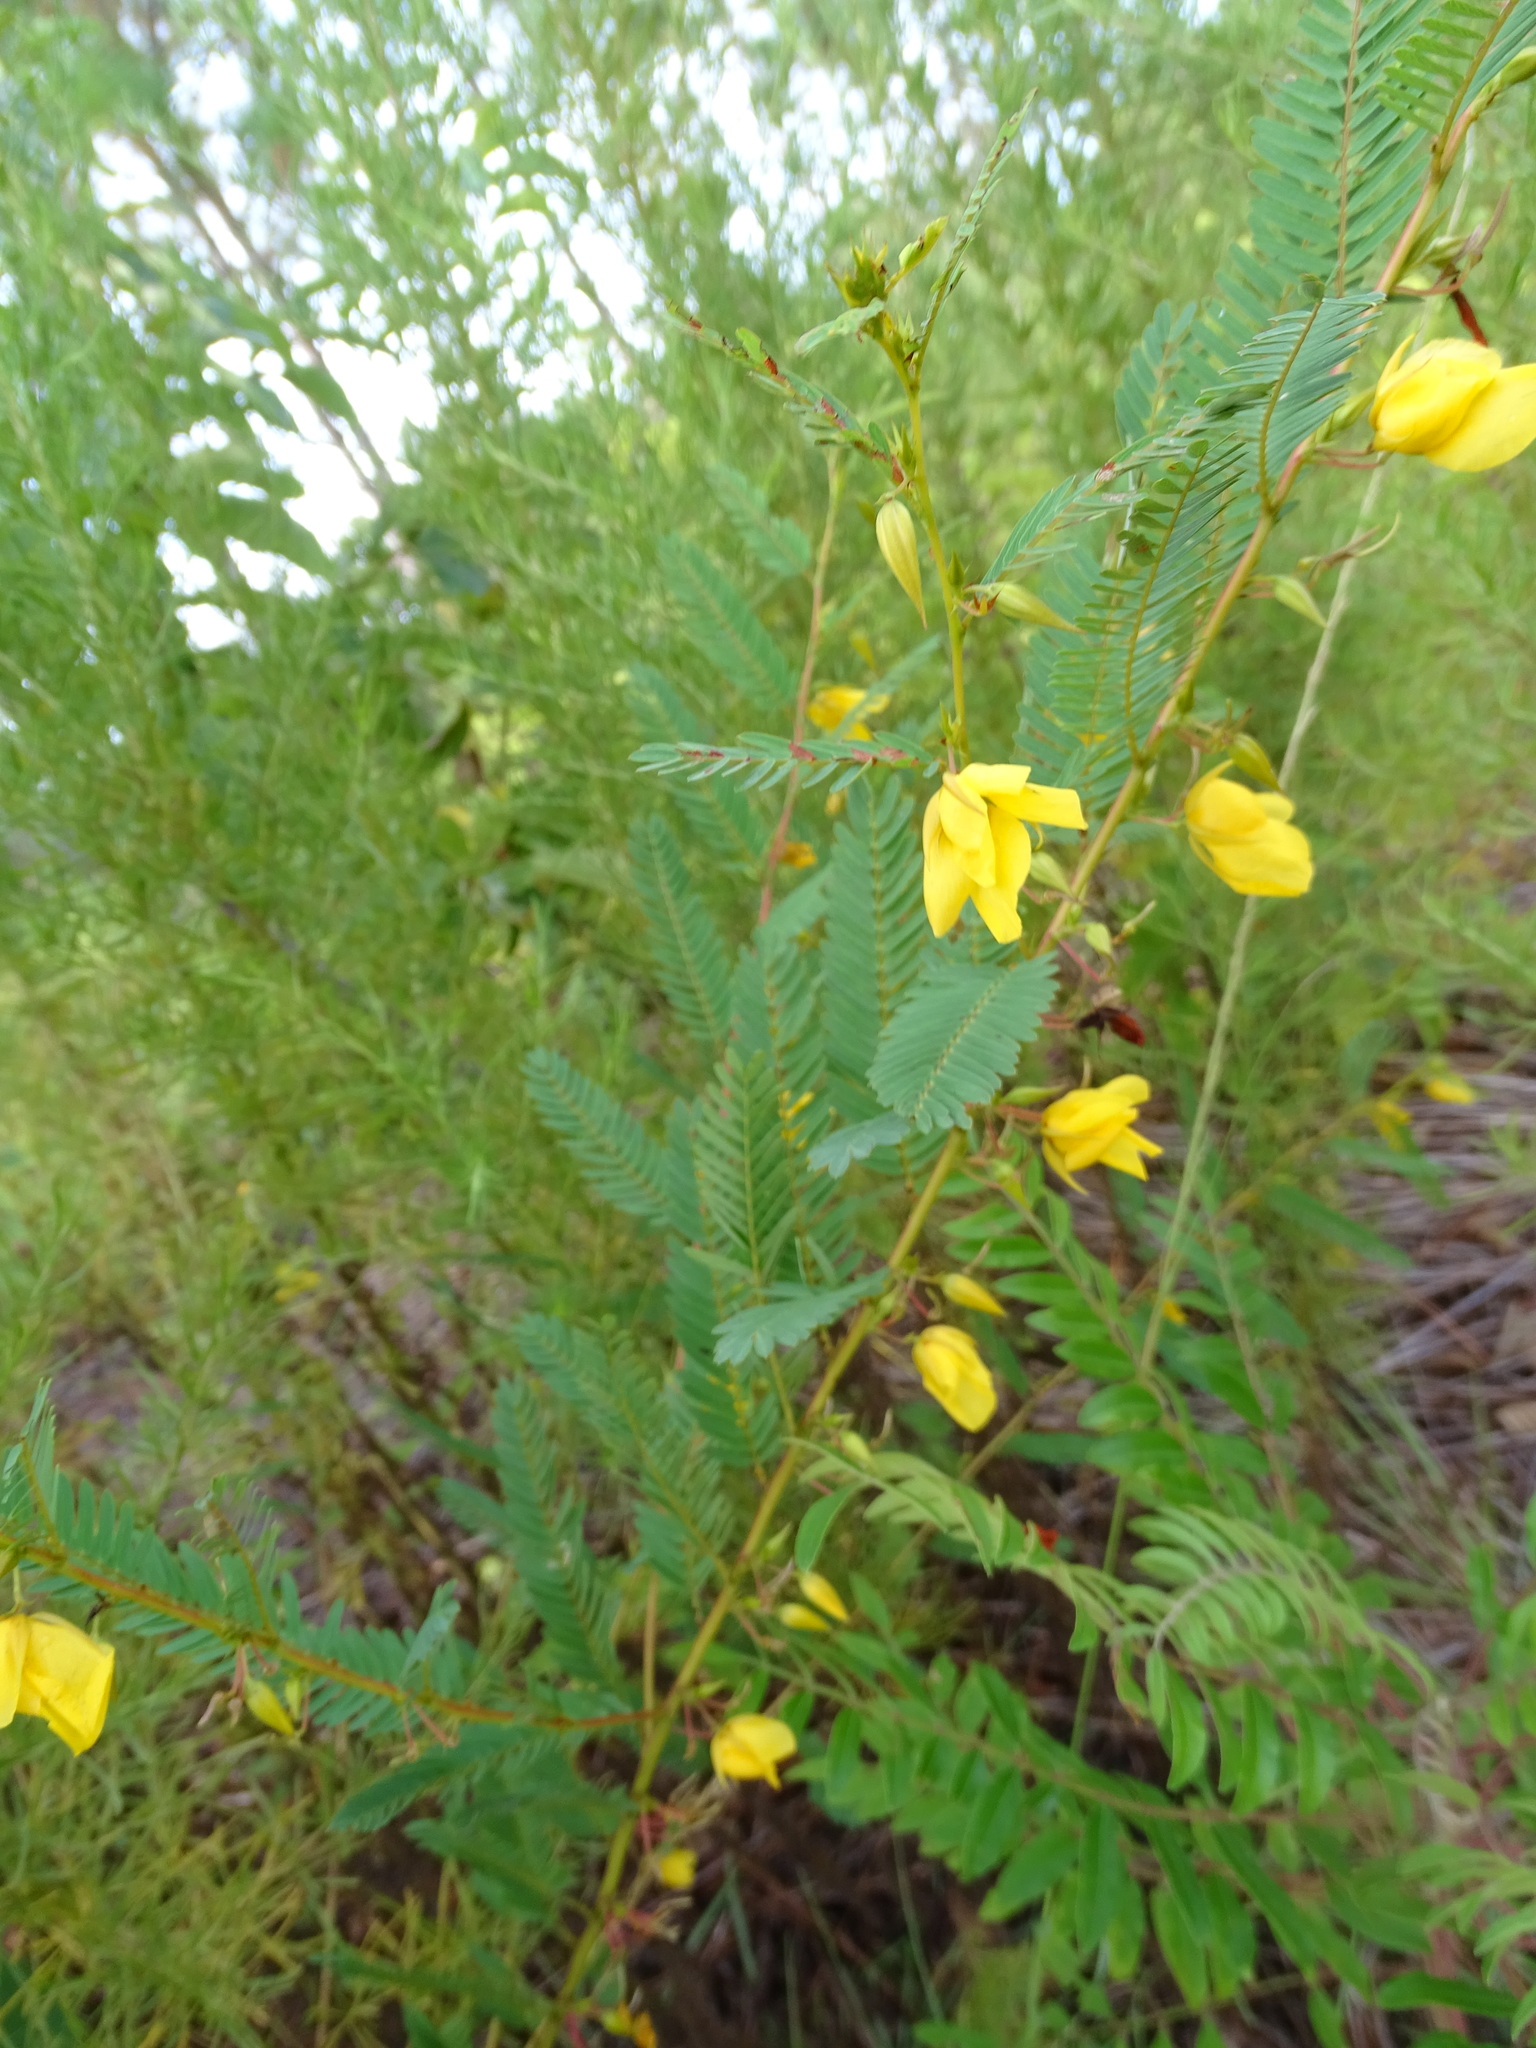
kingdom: Plantae
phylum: Tracheophyta
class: Magnoliopsida
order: Fabales
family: Fabaceae
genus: Chamaecrista
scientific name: Chamaecrista fasciculata
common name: Golden cassia
